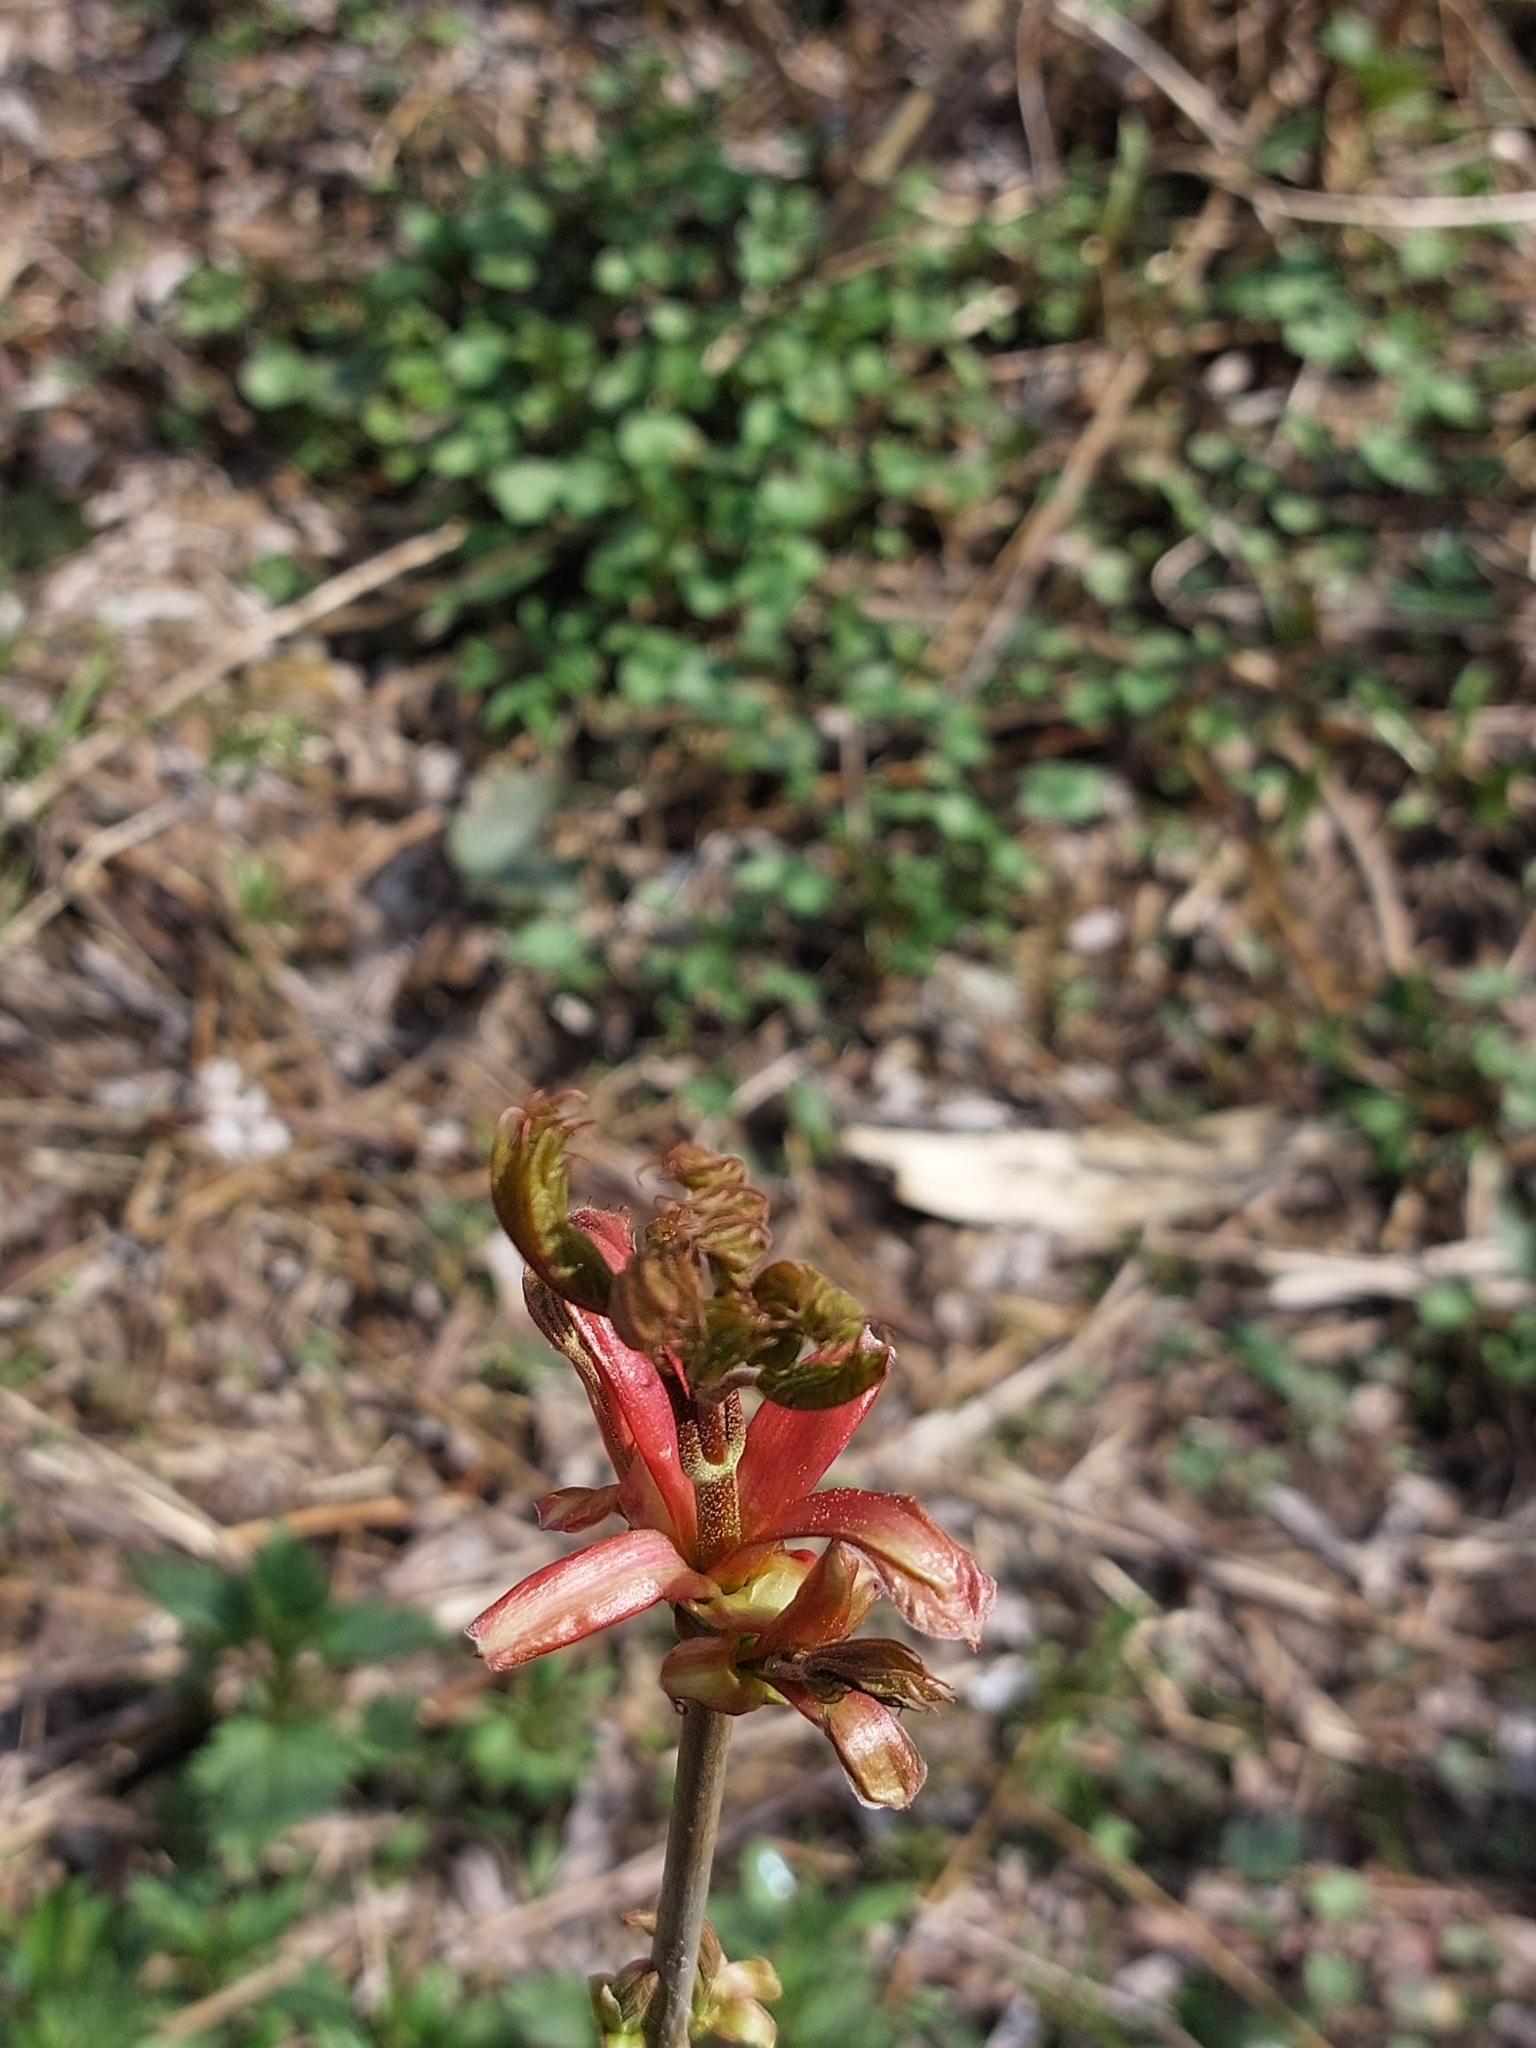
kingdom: Plantae
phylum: Tracheophyta
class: Magnoliopsida
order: Sapindales
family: Sapindaceae
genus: Acer
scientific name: Acer platanoides
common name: Norway maple
